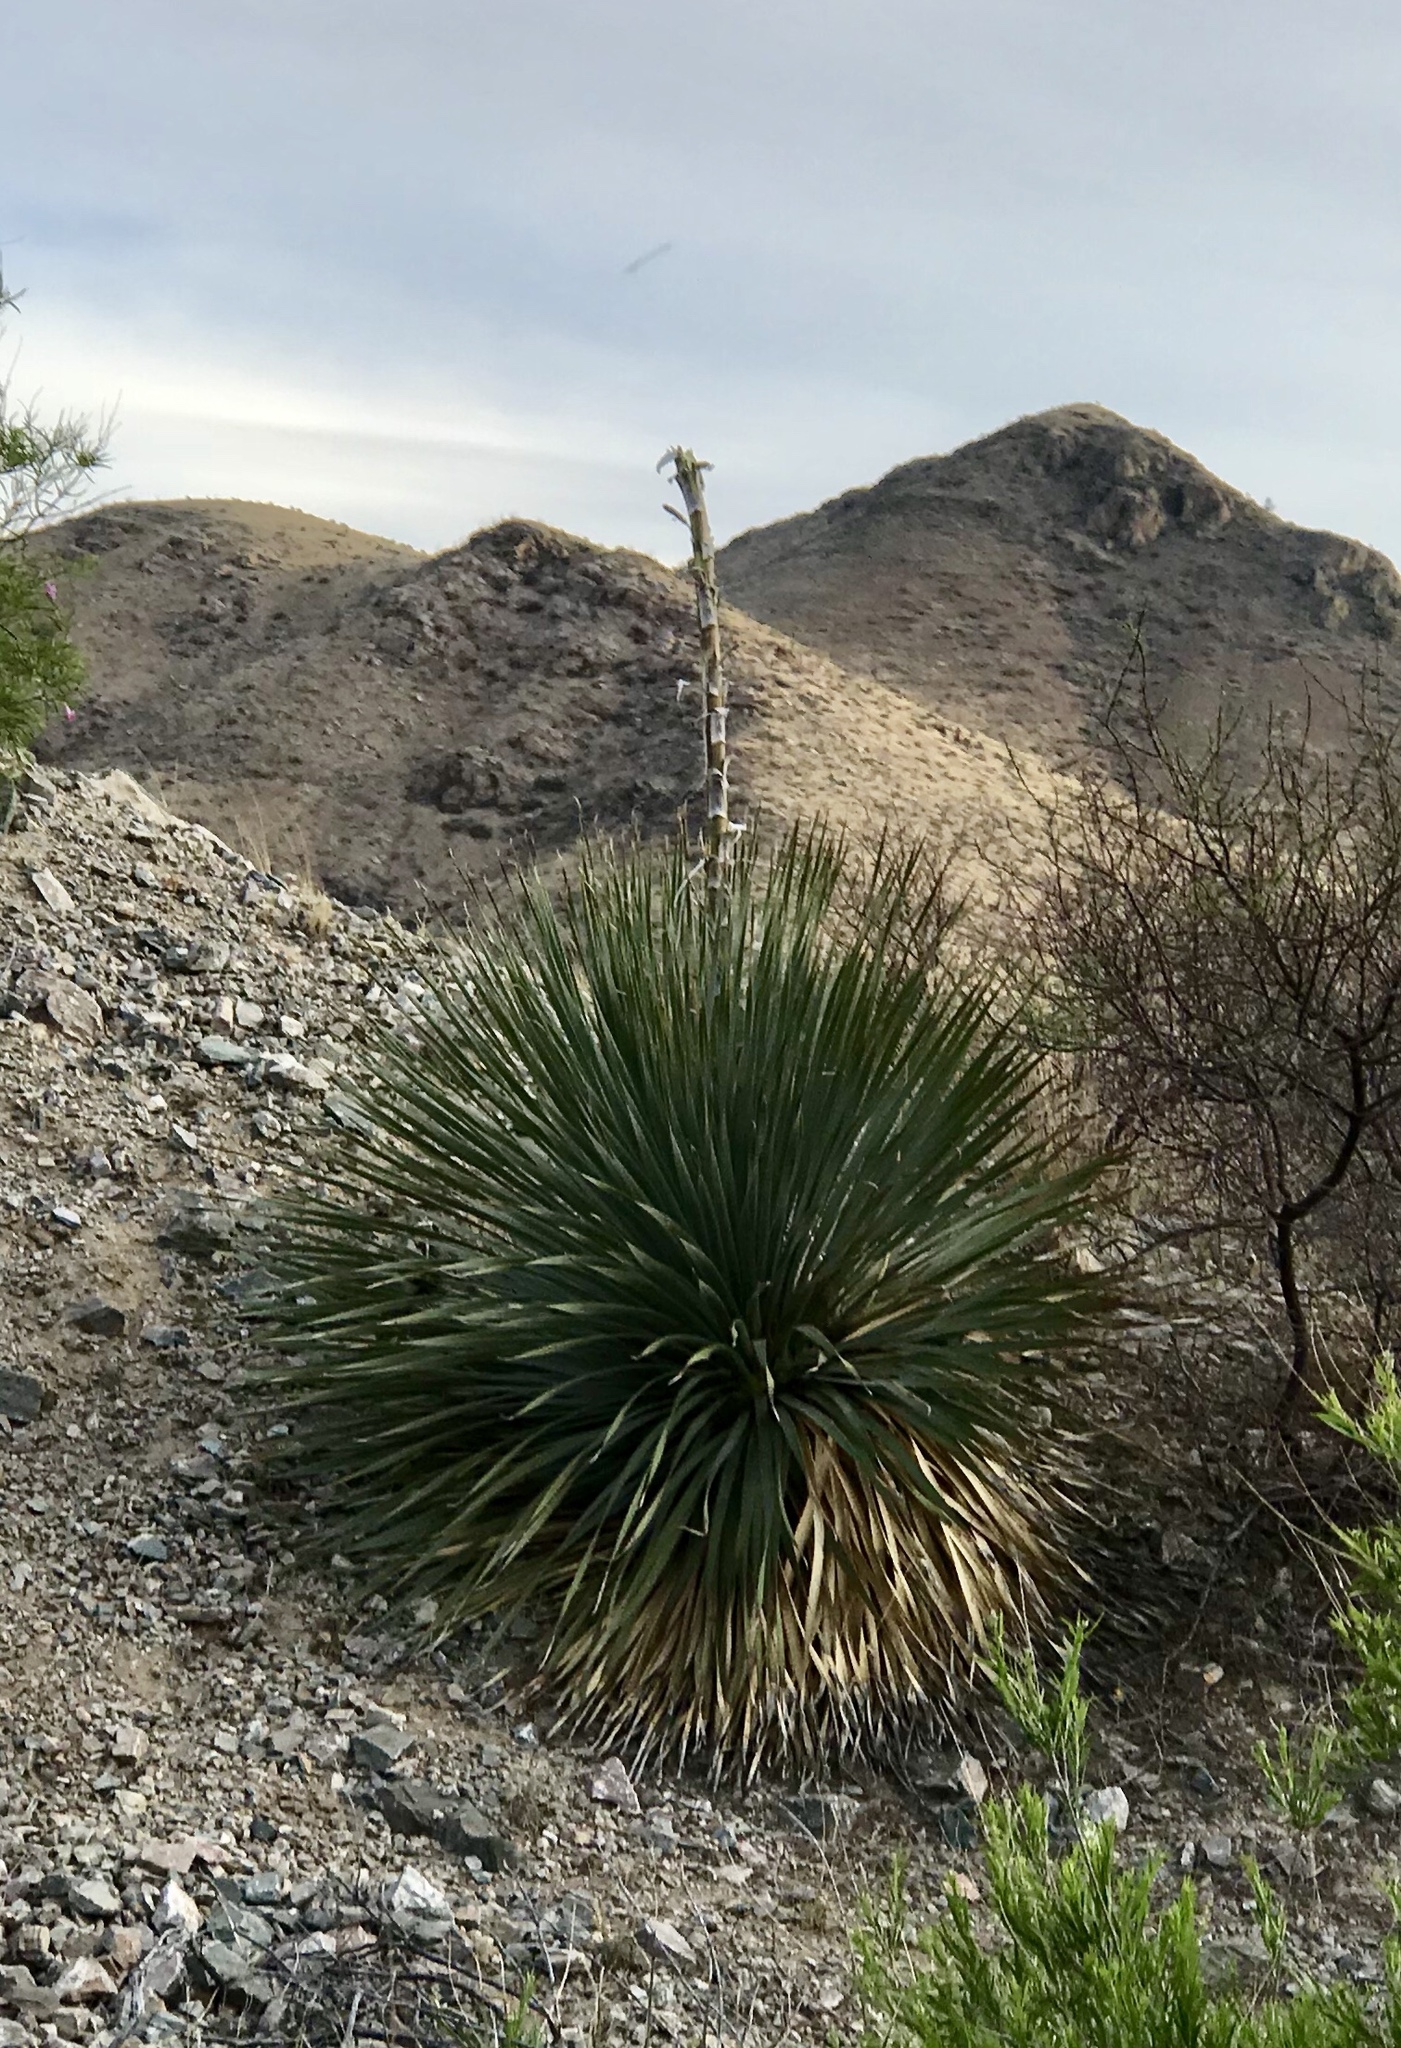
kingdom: Plantae
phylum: Tracheophyta
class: Liliopsida
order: Asparagales
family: Asparagaceae
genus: Dasylirion
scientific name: Dasylirion wheeleri
